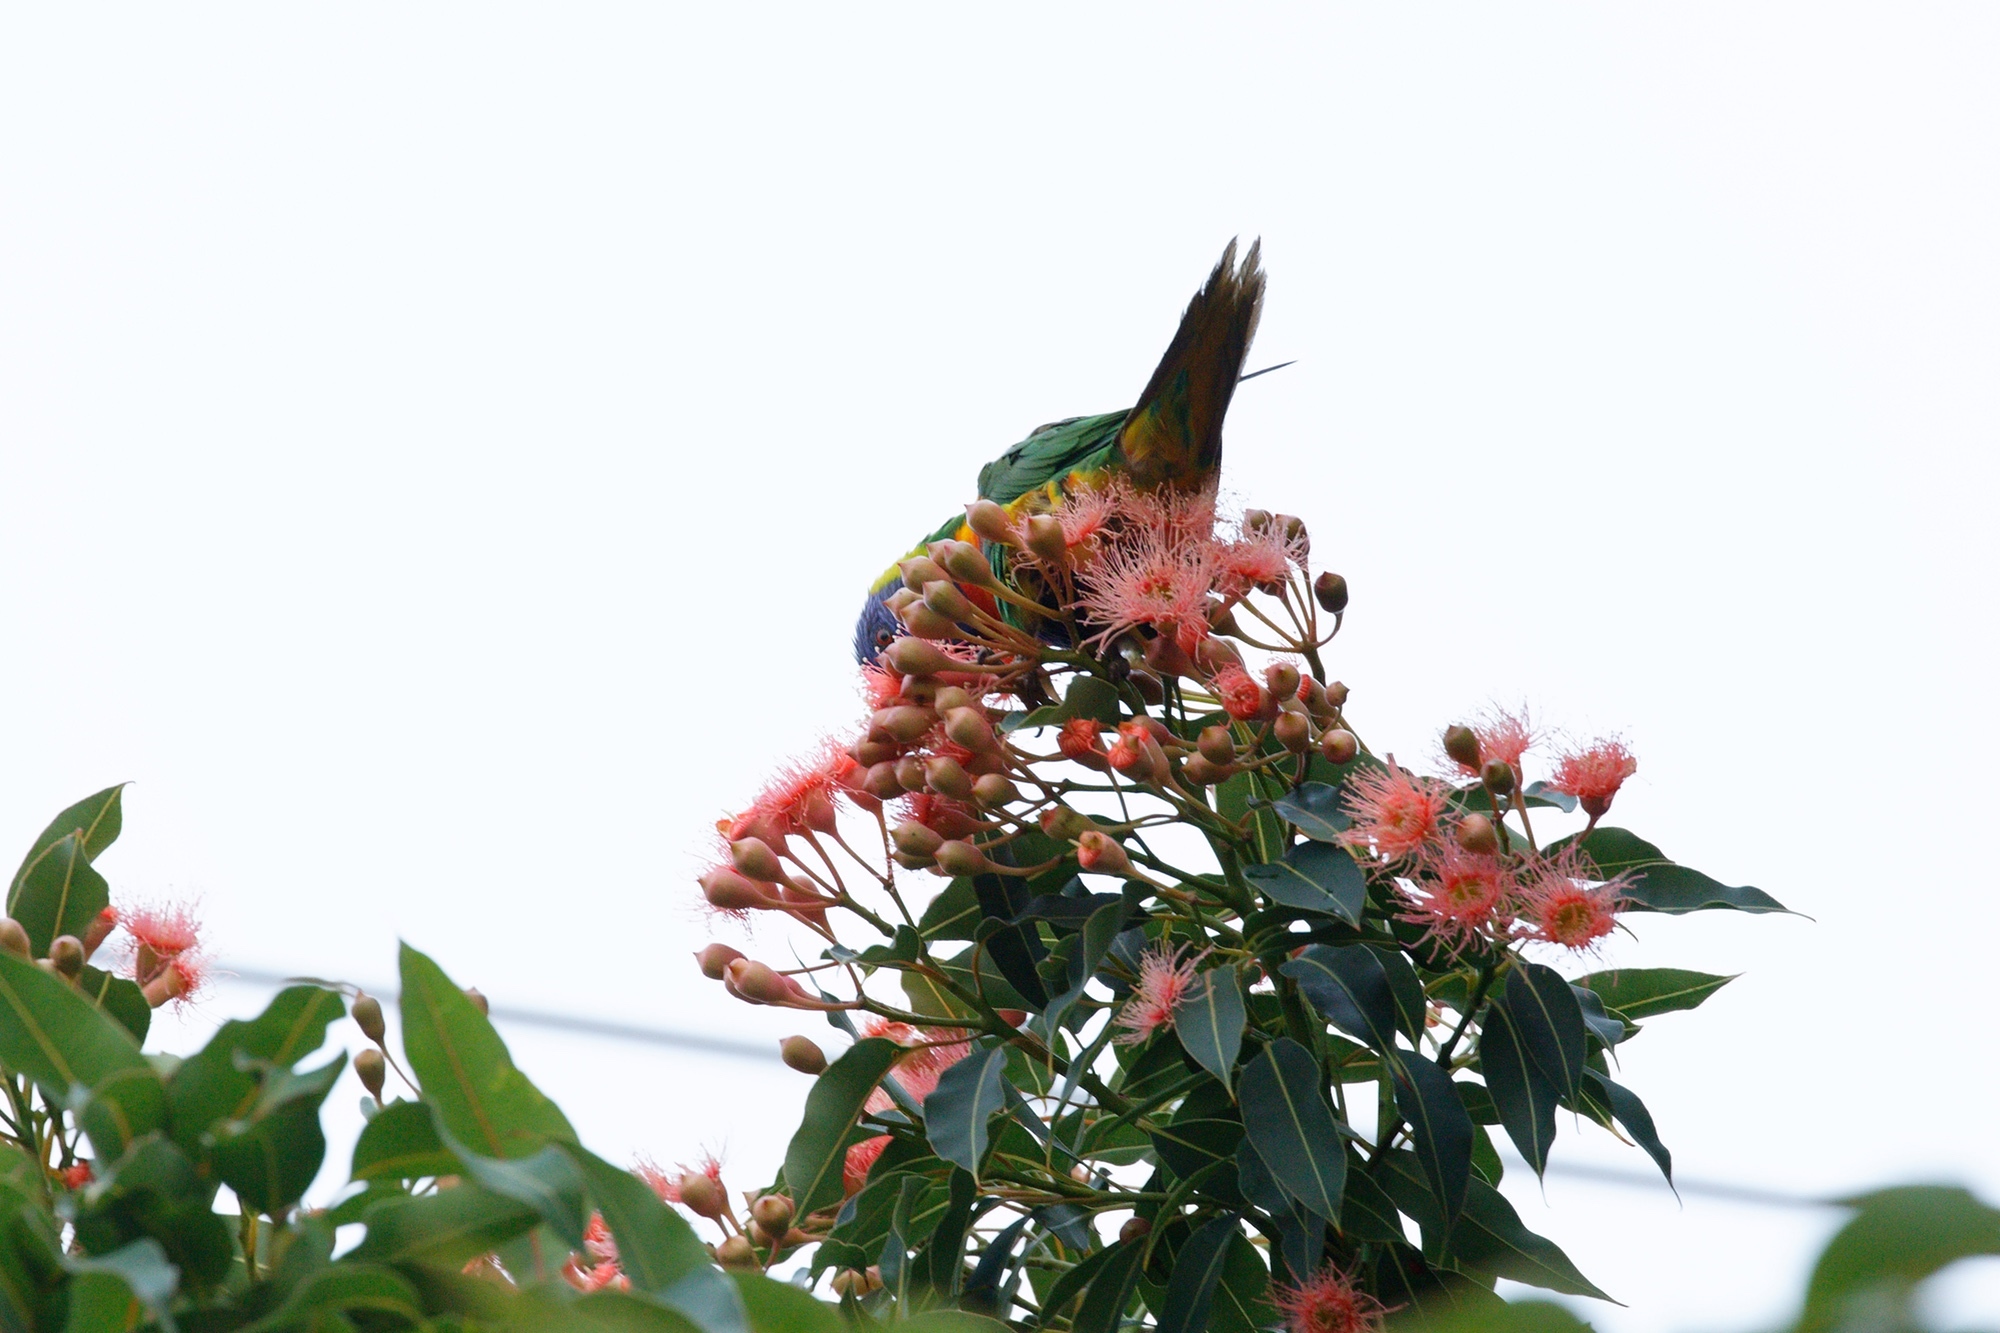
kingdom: Animalia
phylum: Chordata
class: Aves
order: Psittaciformes
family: Psittacidae
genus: Trichoglossus
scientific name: Trichoglossus haematodus
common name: Coconut lorikeet
